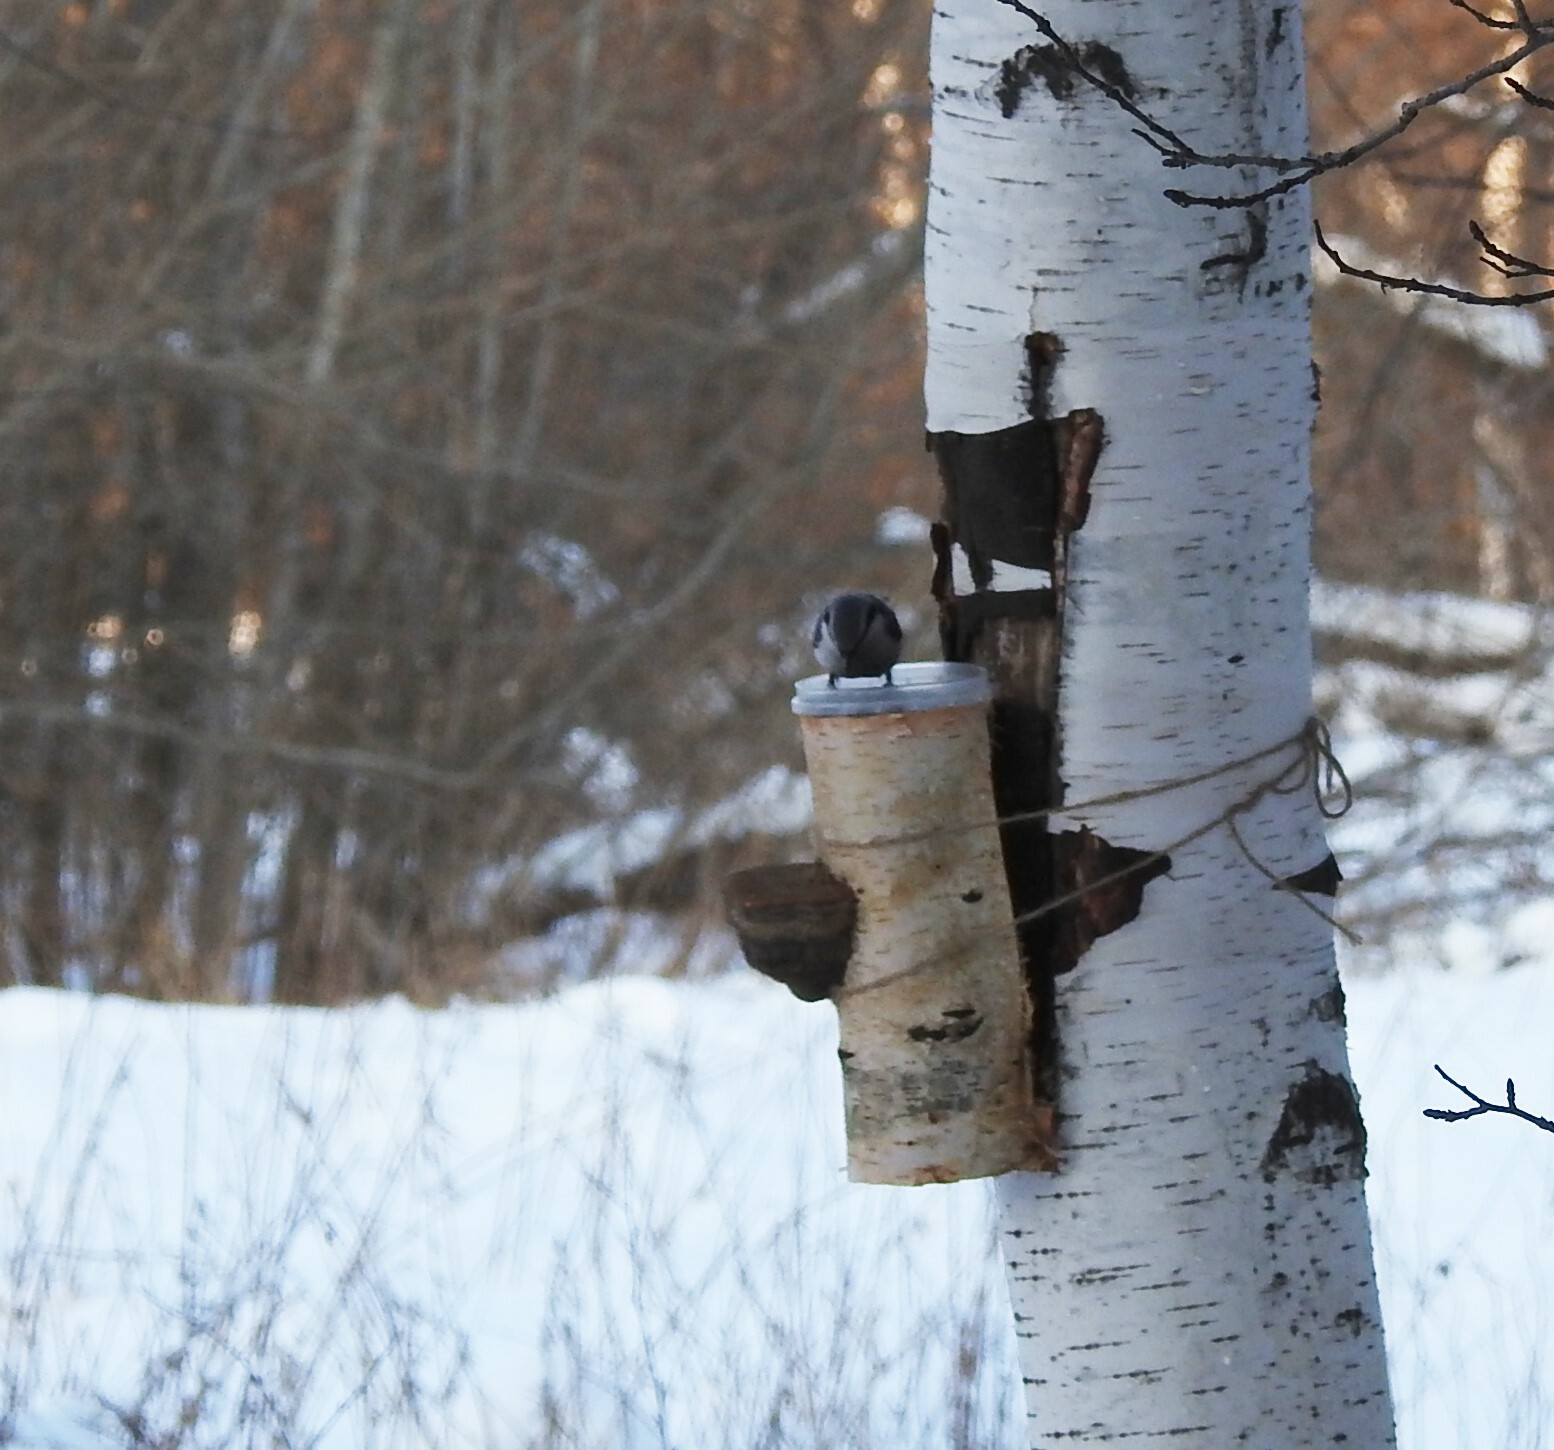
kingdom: Animalia
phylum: Chordata
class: Aves
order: Passeriformes
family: Sittidae
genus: Sitta
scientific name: Sitta europaea
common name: Eurasian nuthatch
